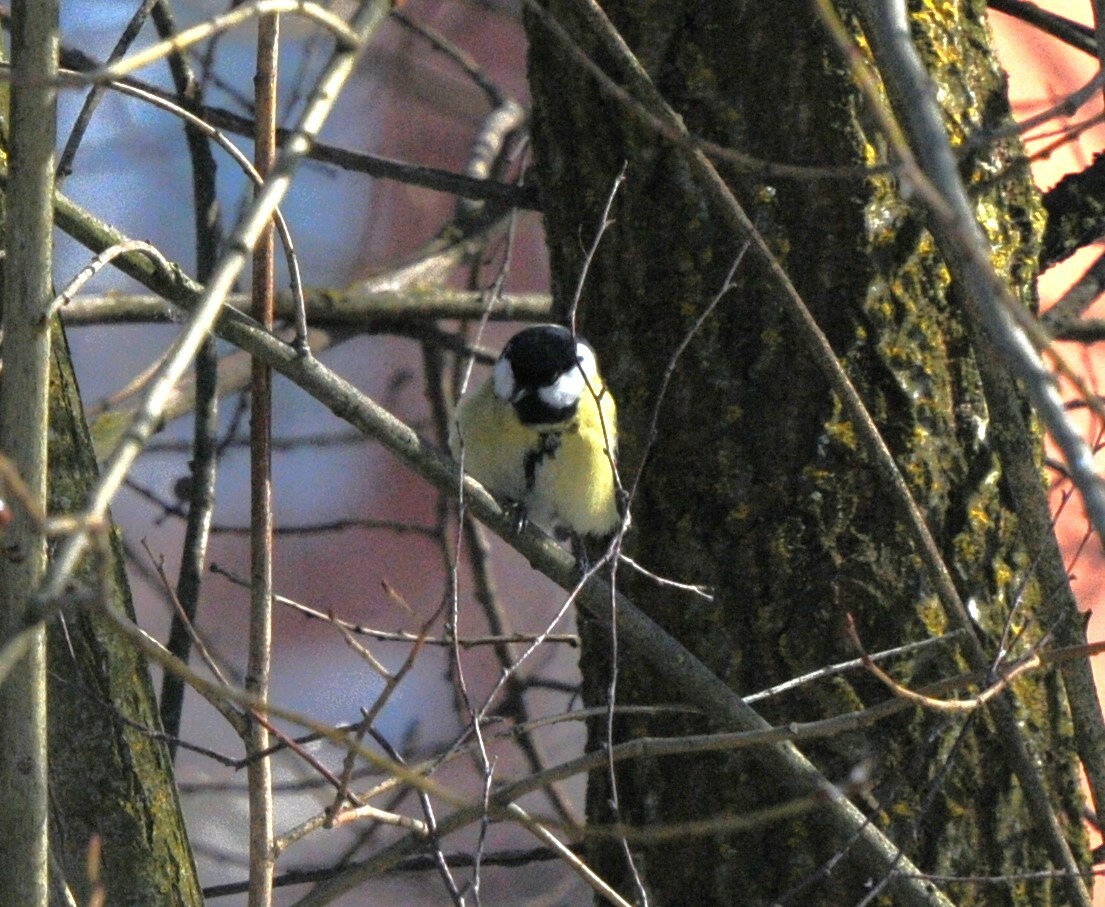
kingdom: Animalia
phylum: Chordata
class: Aves
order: Passeriformes
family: Paridae
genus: Parus
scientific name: Parus major
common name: Great tit
